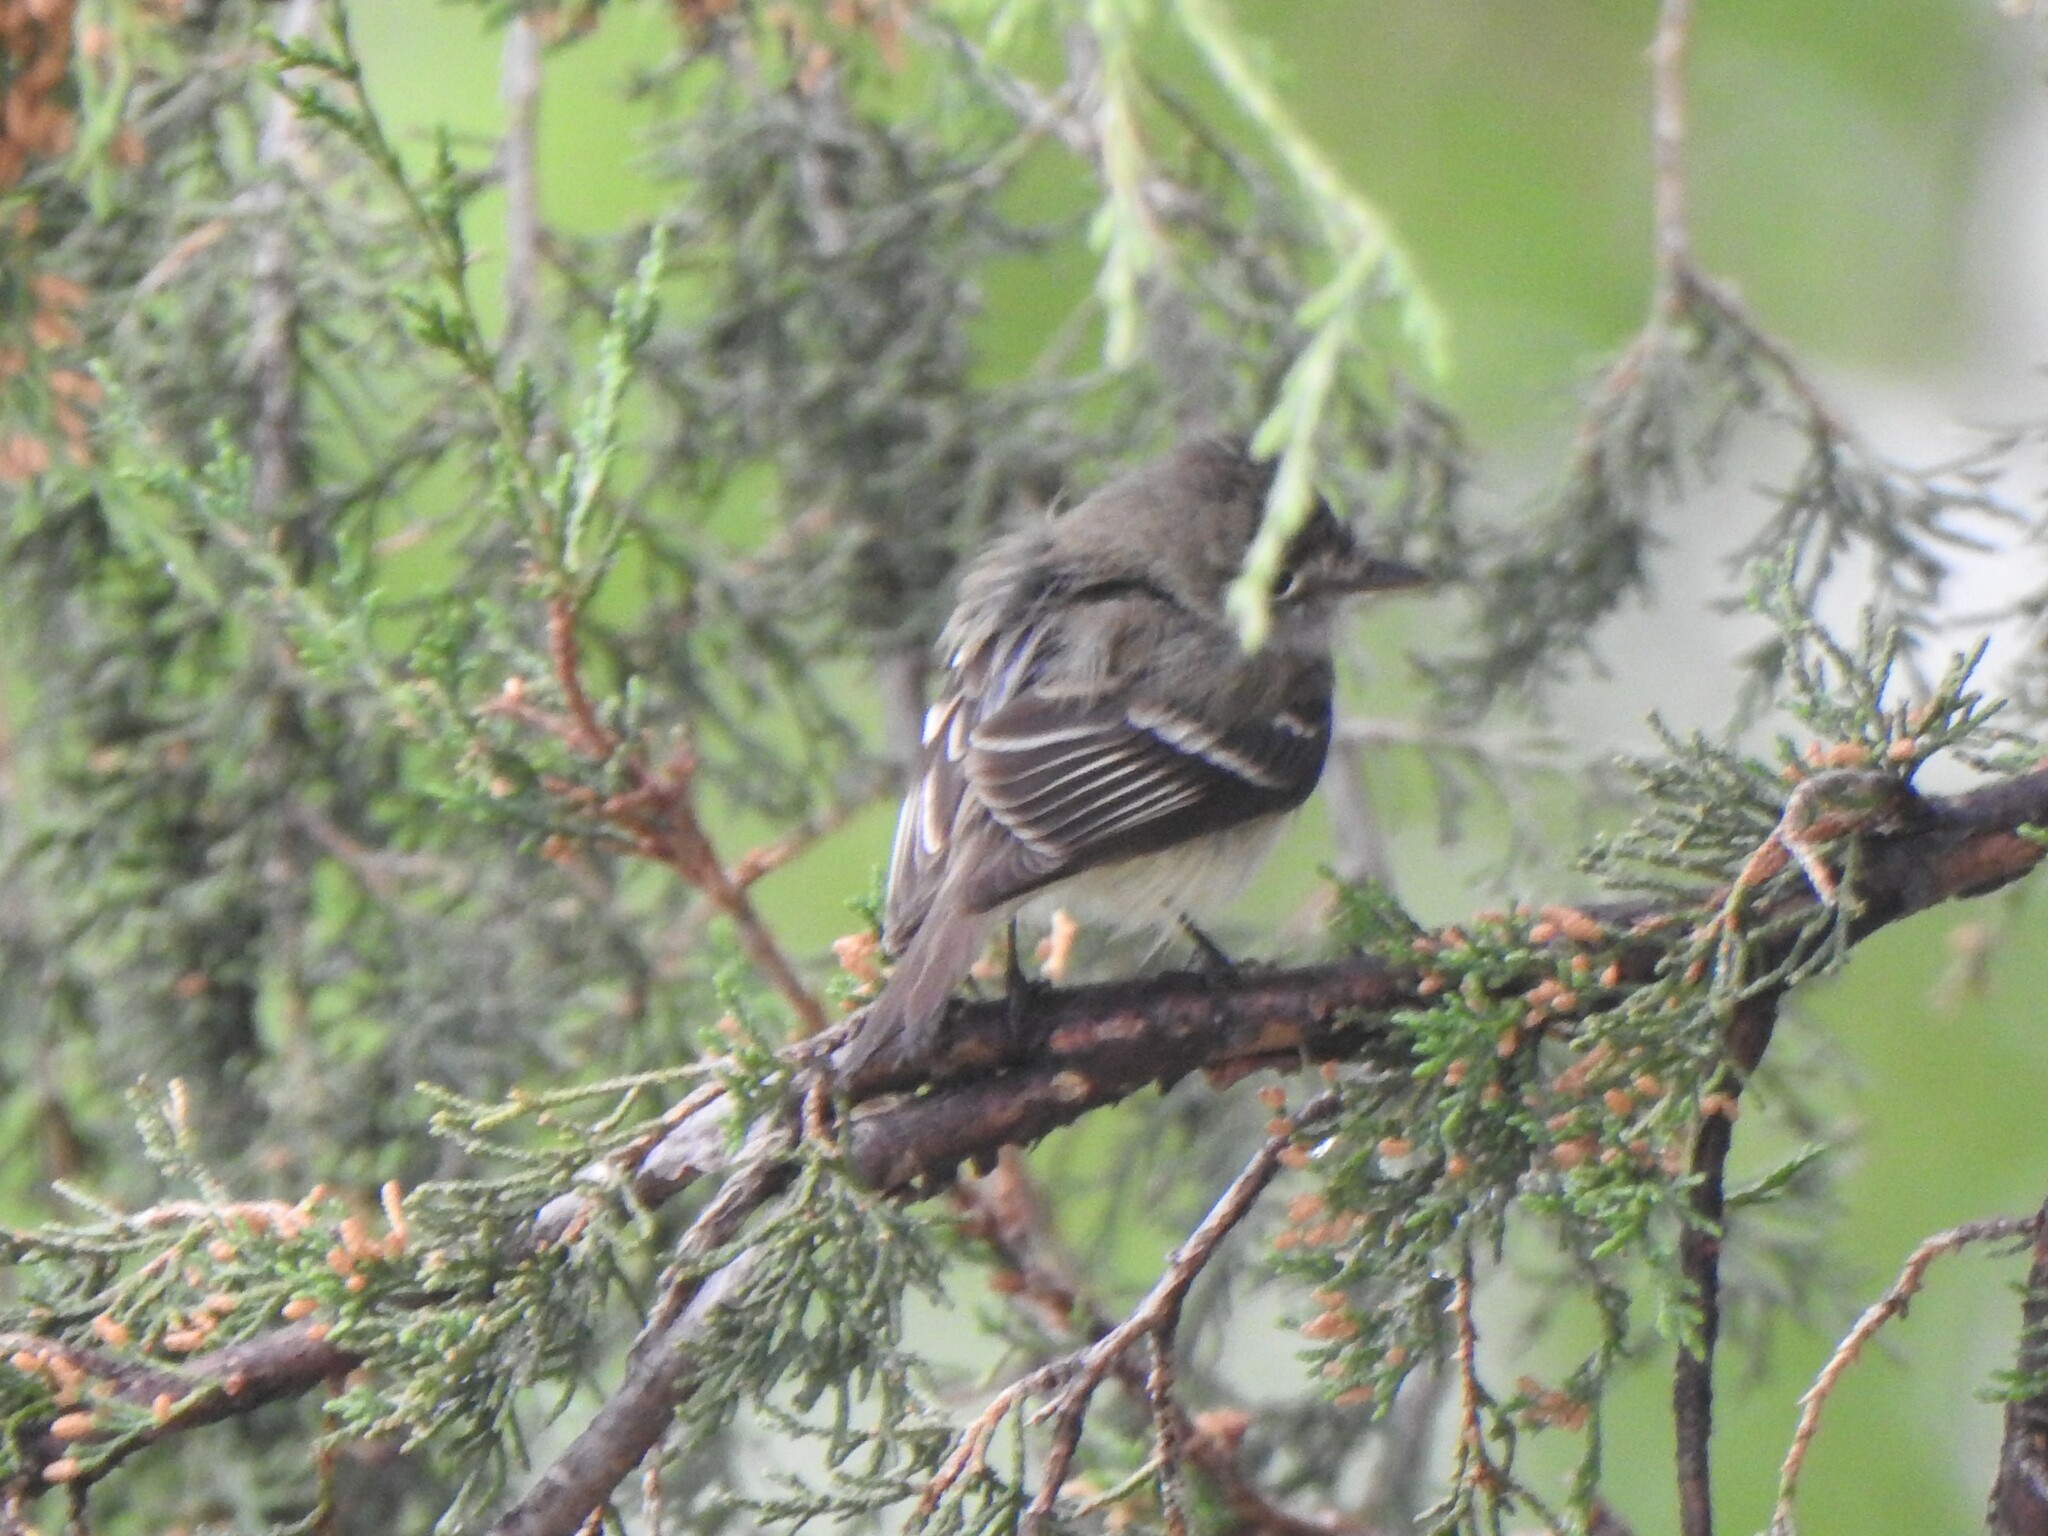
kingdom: Animalia
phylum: Chordata
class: Aves
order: Passeriformes
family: Tyrannidae
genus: Empidonax
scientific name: Empidonax minimus
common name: Least flycatcher
